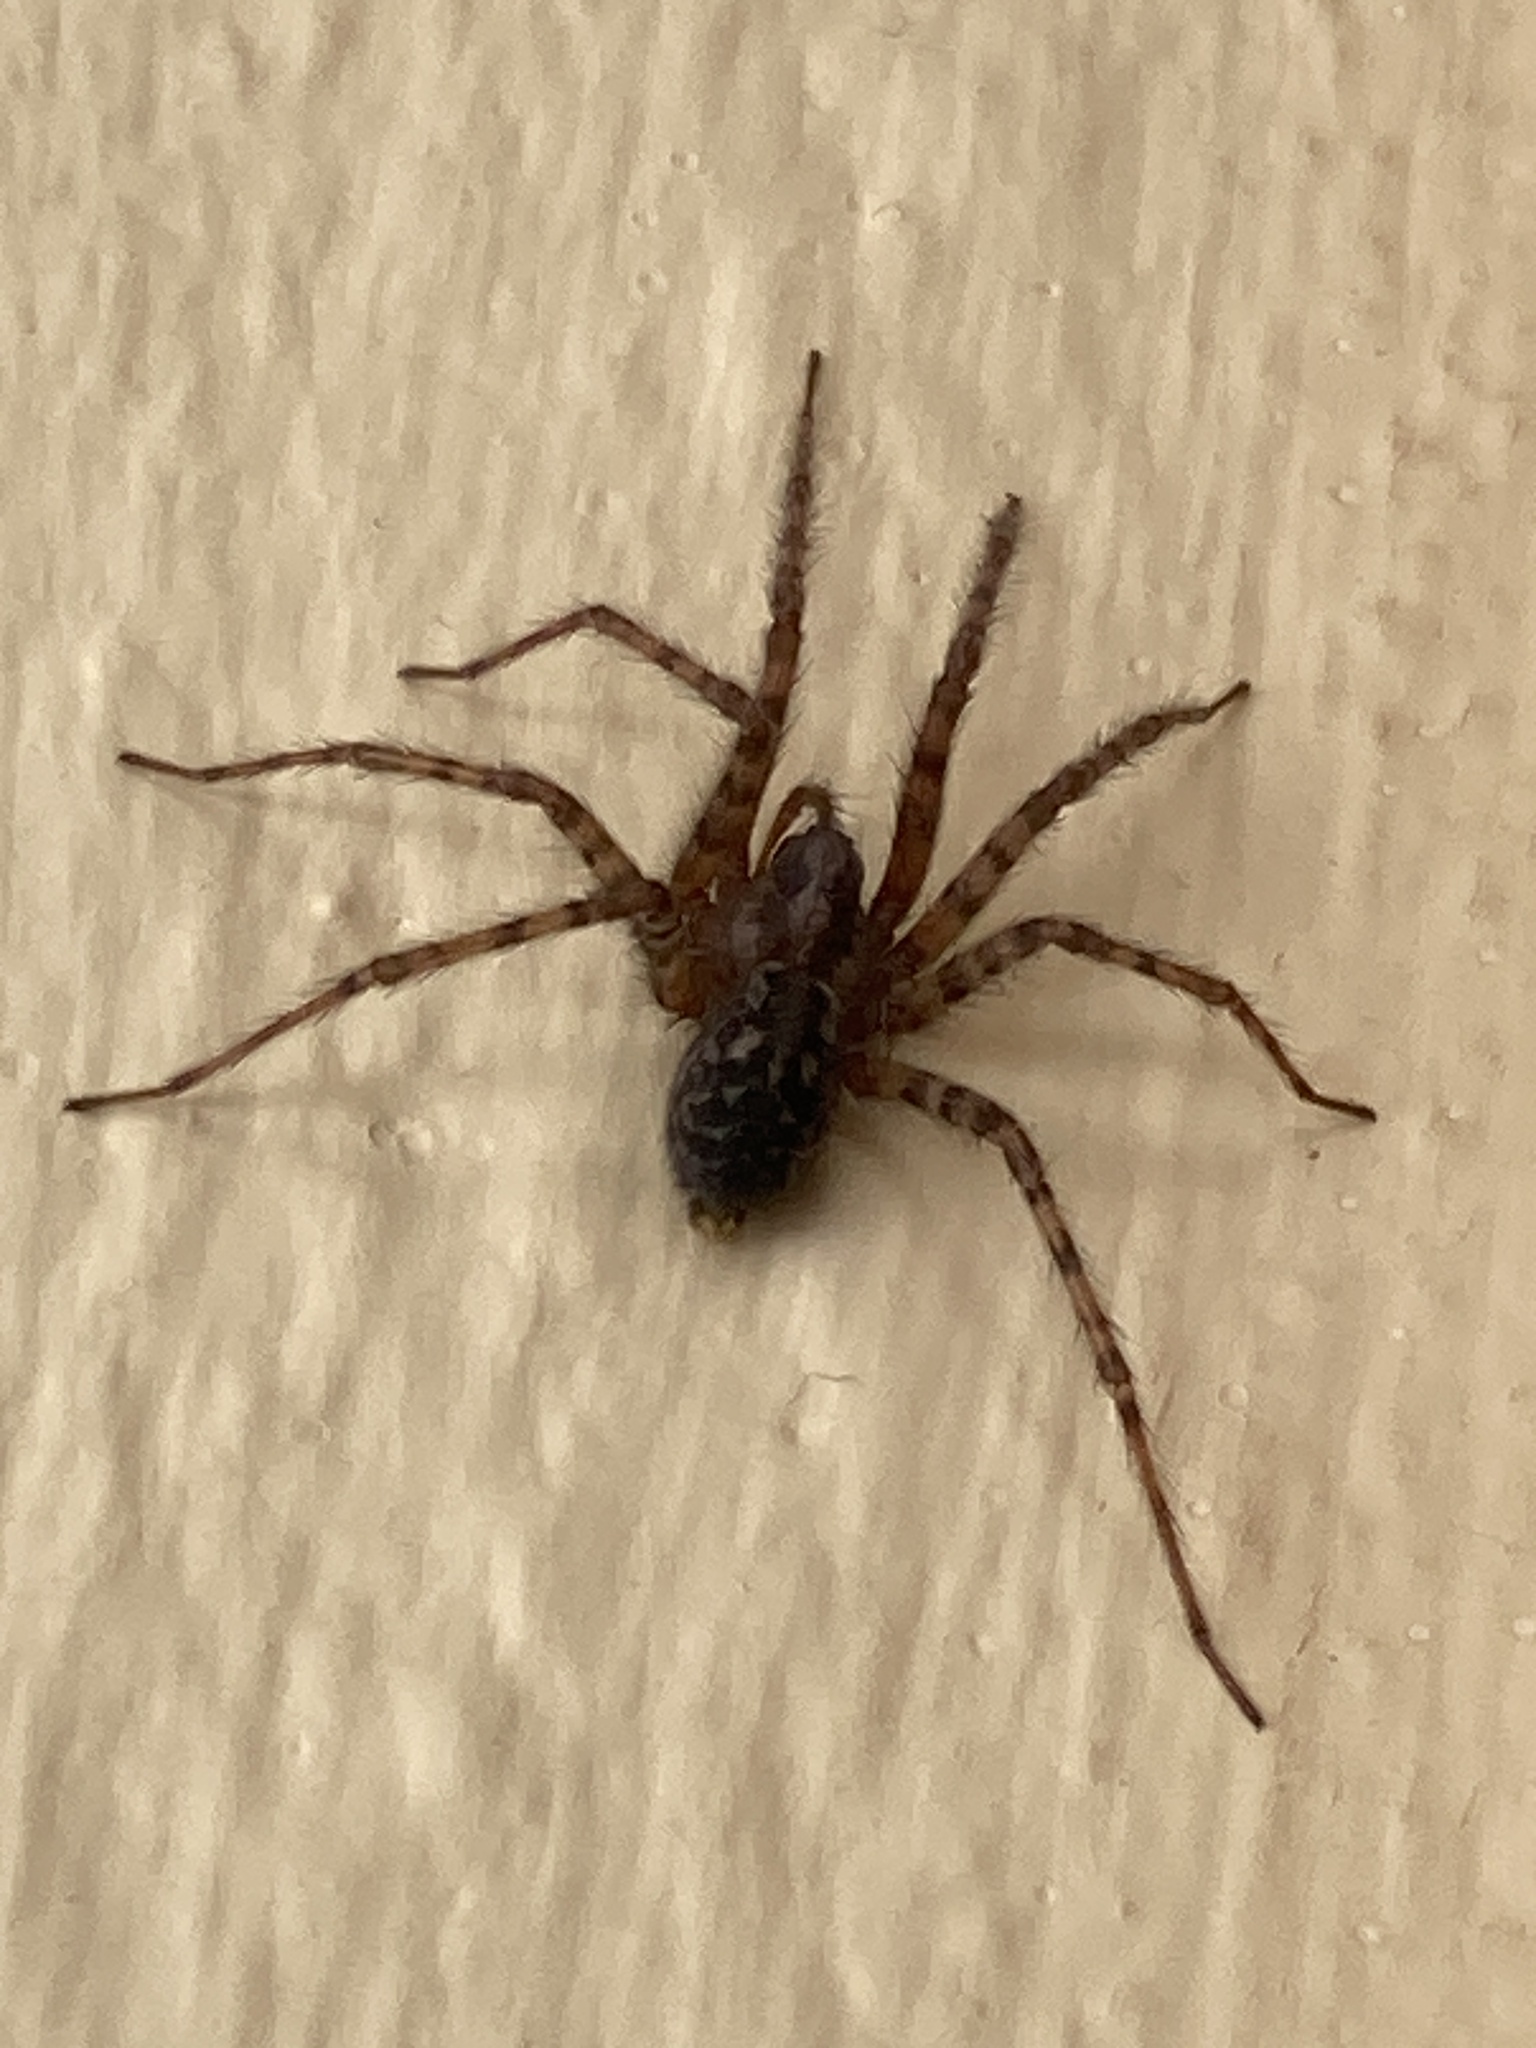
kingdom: Animalia
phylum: Arthropoda
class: Arachnida
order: Araneae
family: Agelenidae
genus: Tegenaria
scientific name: Tegenaria
